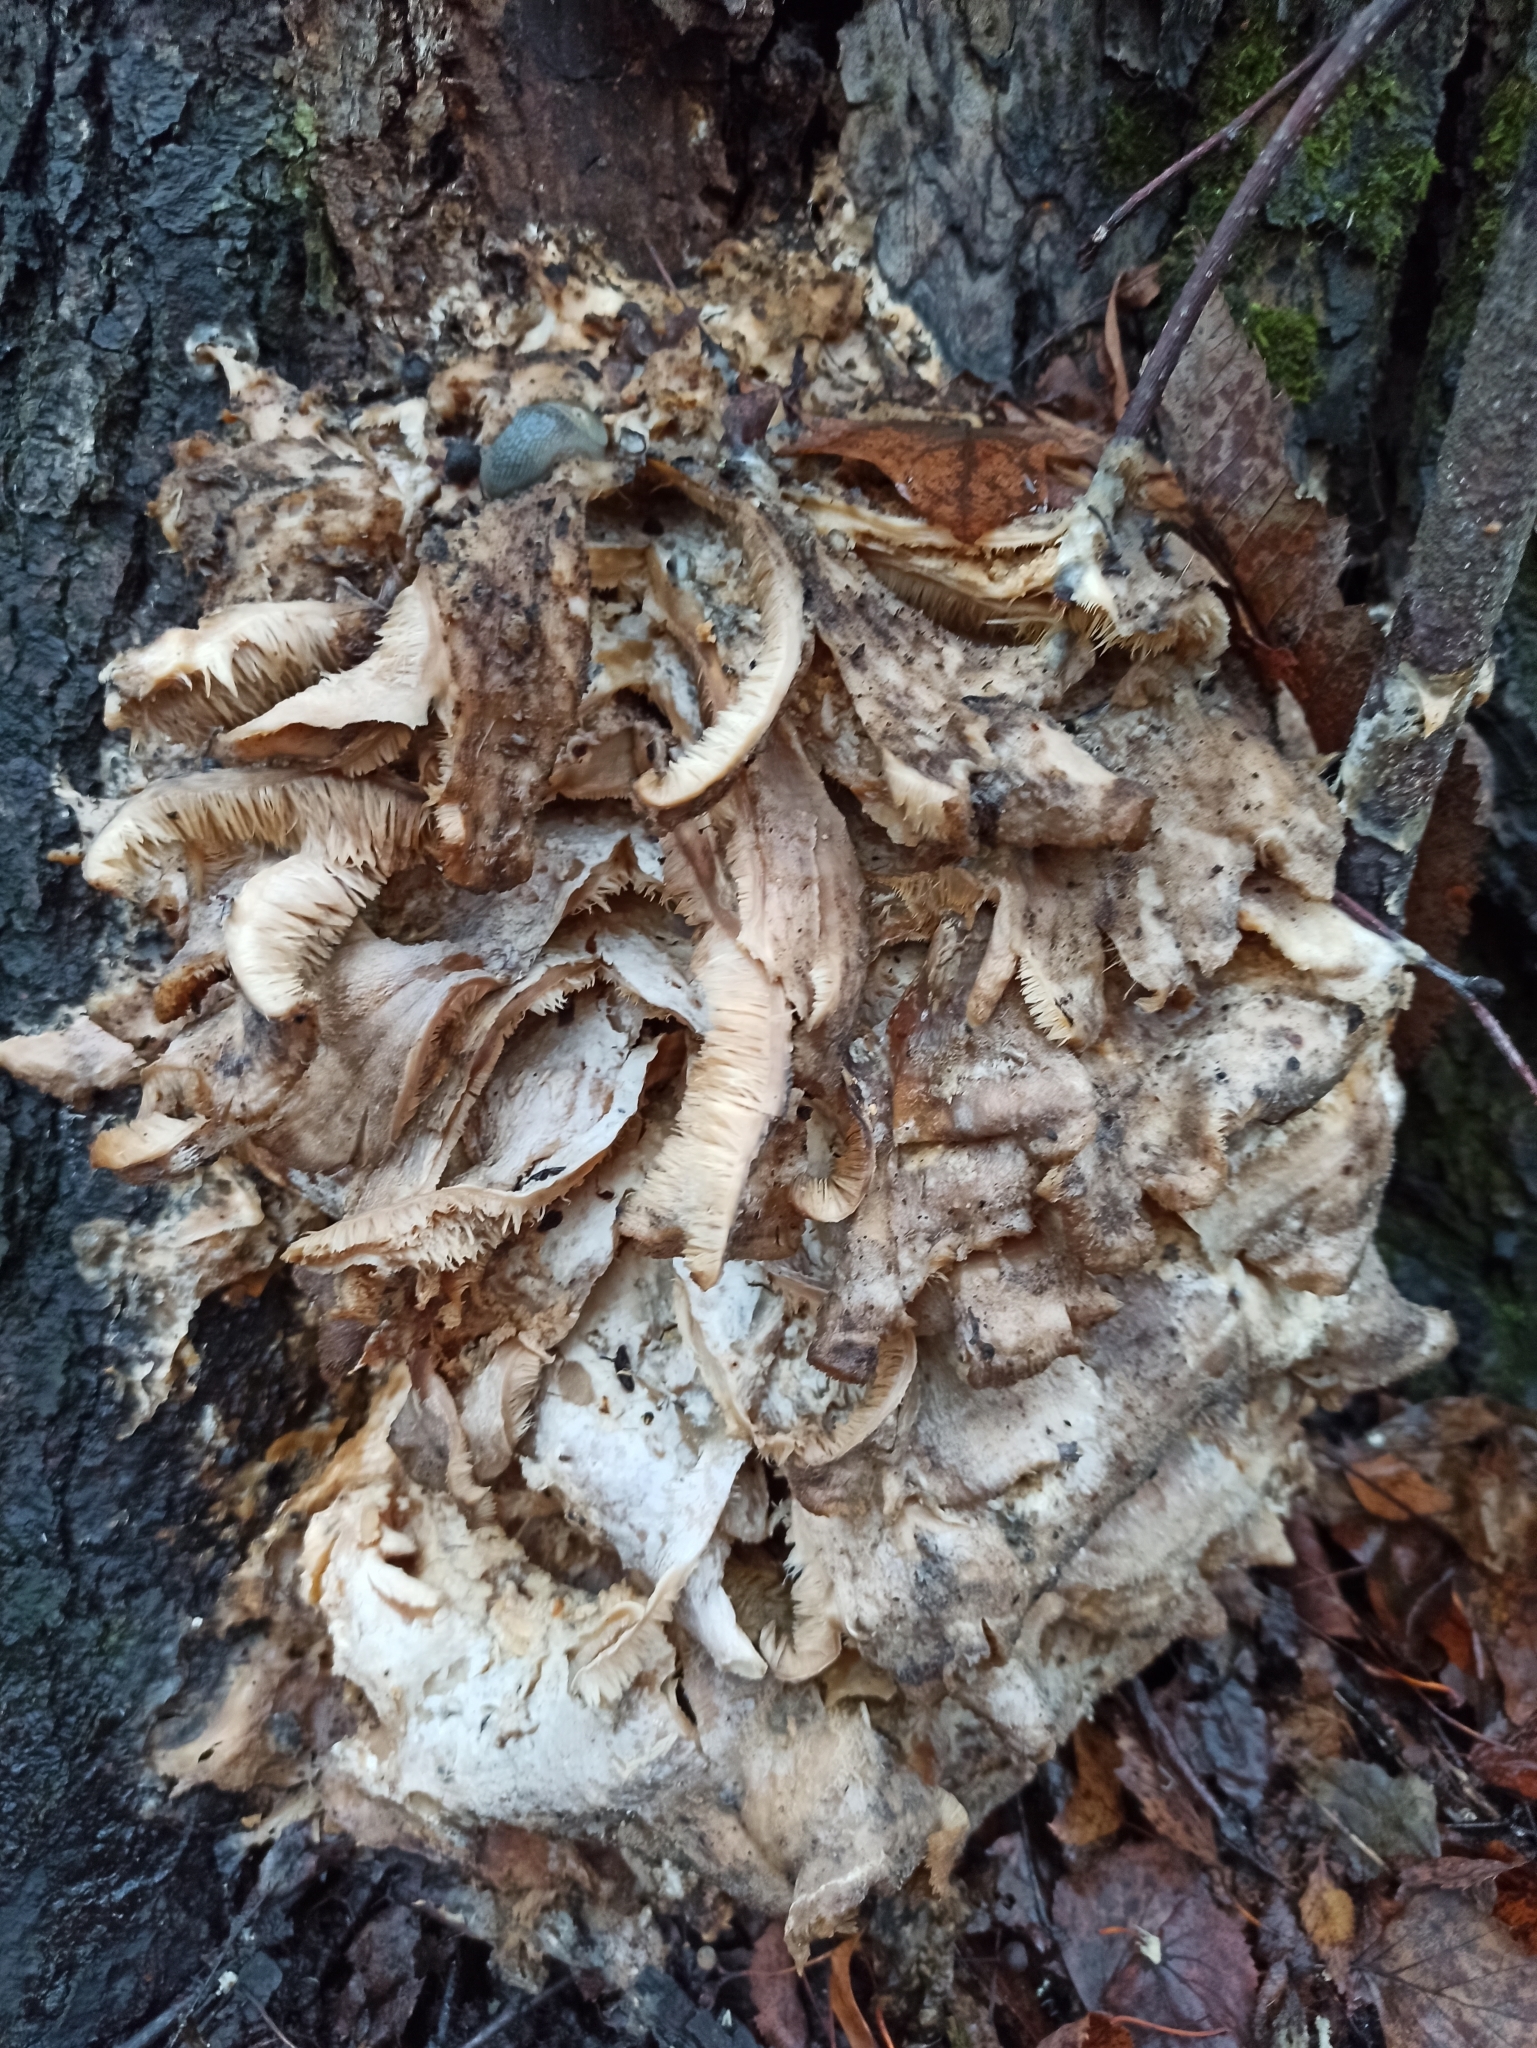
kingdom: Fungi
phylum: Basidiomycota
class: Agaricomycetes
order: Polyporales
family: Meruliaceae
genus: Climacodon
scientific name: Climacodon septentrionalis
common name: Northern tooth
